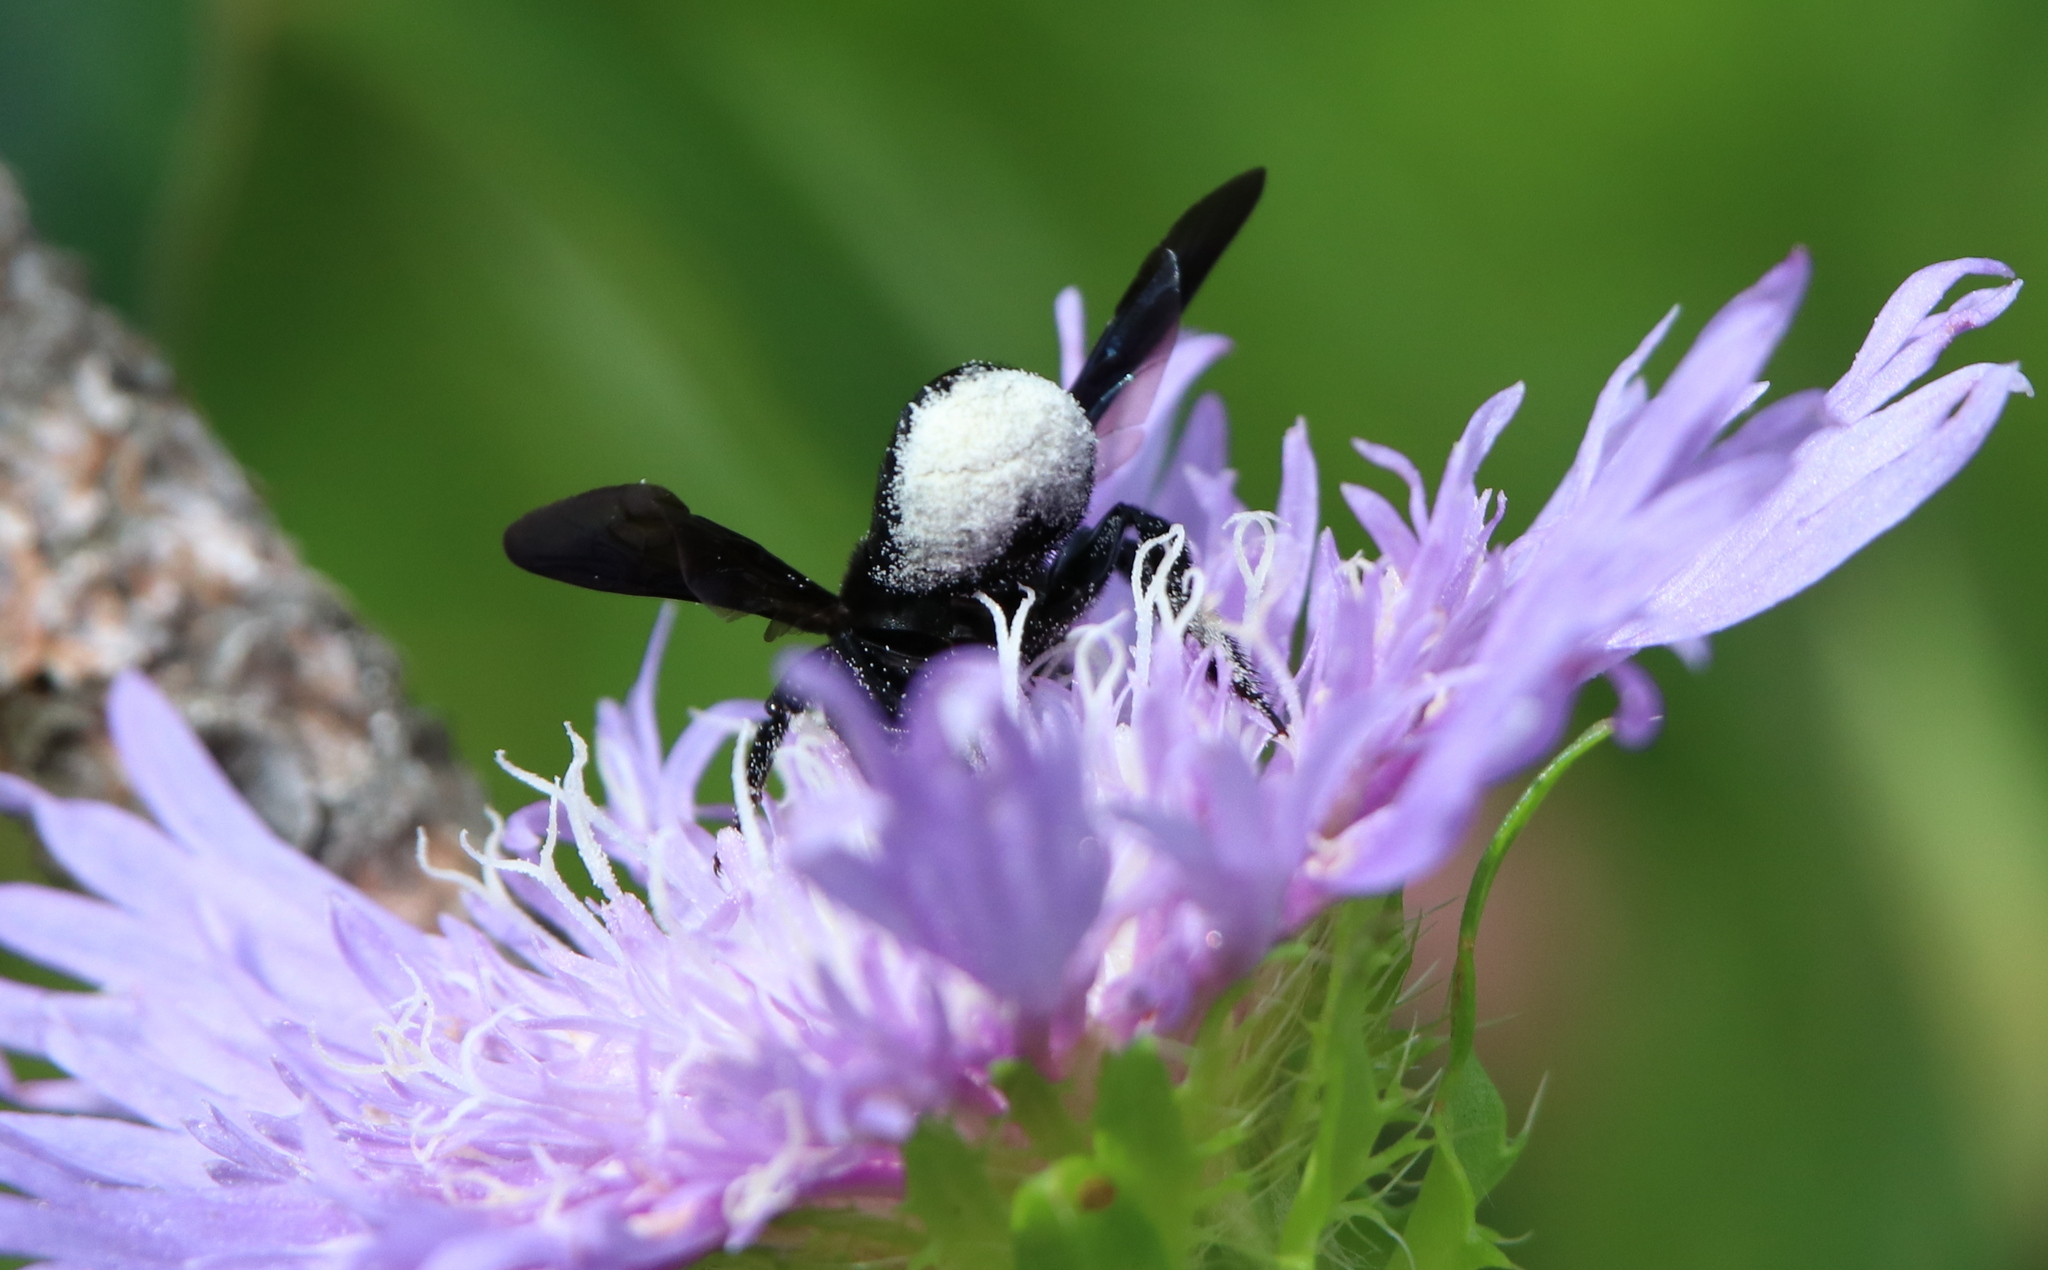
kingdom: Animalia
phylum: Arthropoda
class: Insecta
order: Hymenoptera
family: Megachilidae
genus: Megachile
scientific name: Megachile xylocopoides
